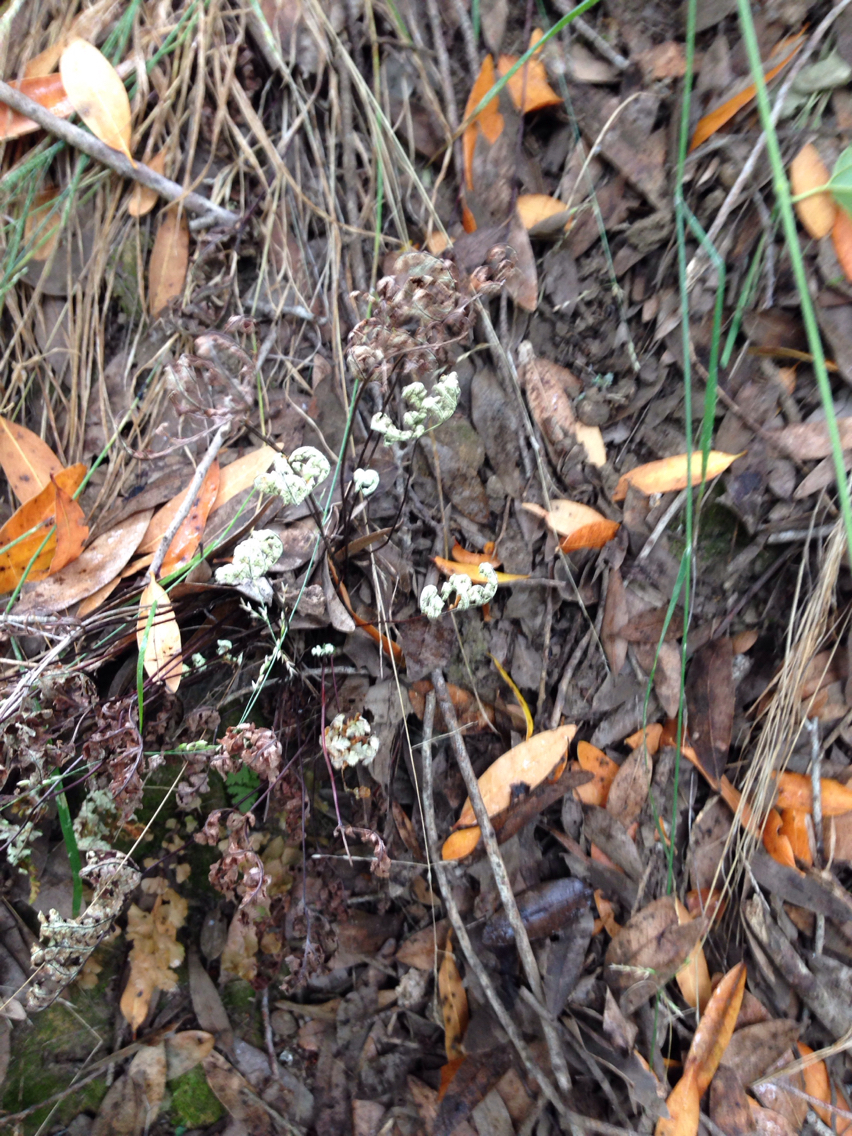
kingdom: Plantae
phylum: Tracheophyta
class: Polypodiopsida
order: Polypodiales
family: Pteridaceae
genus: Pentagramma
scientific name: Pentagramma triangularis
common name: Gold fern
